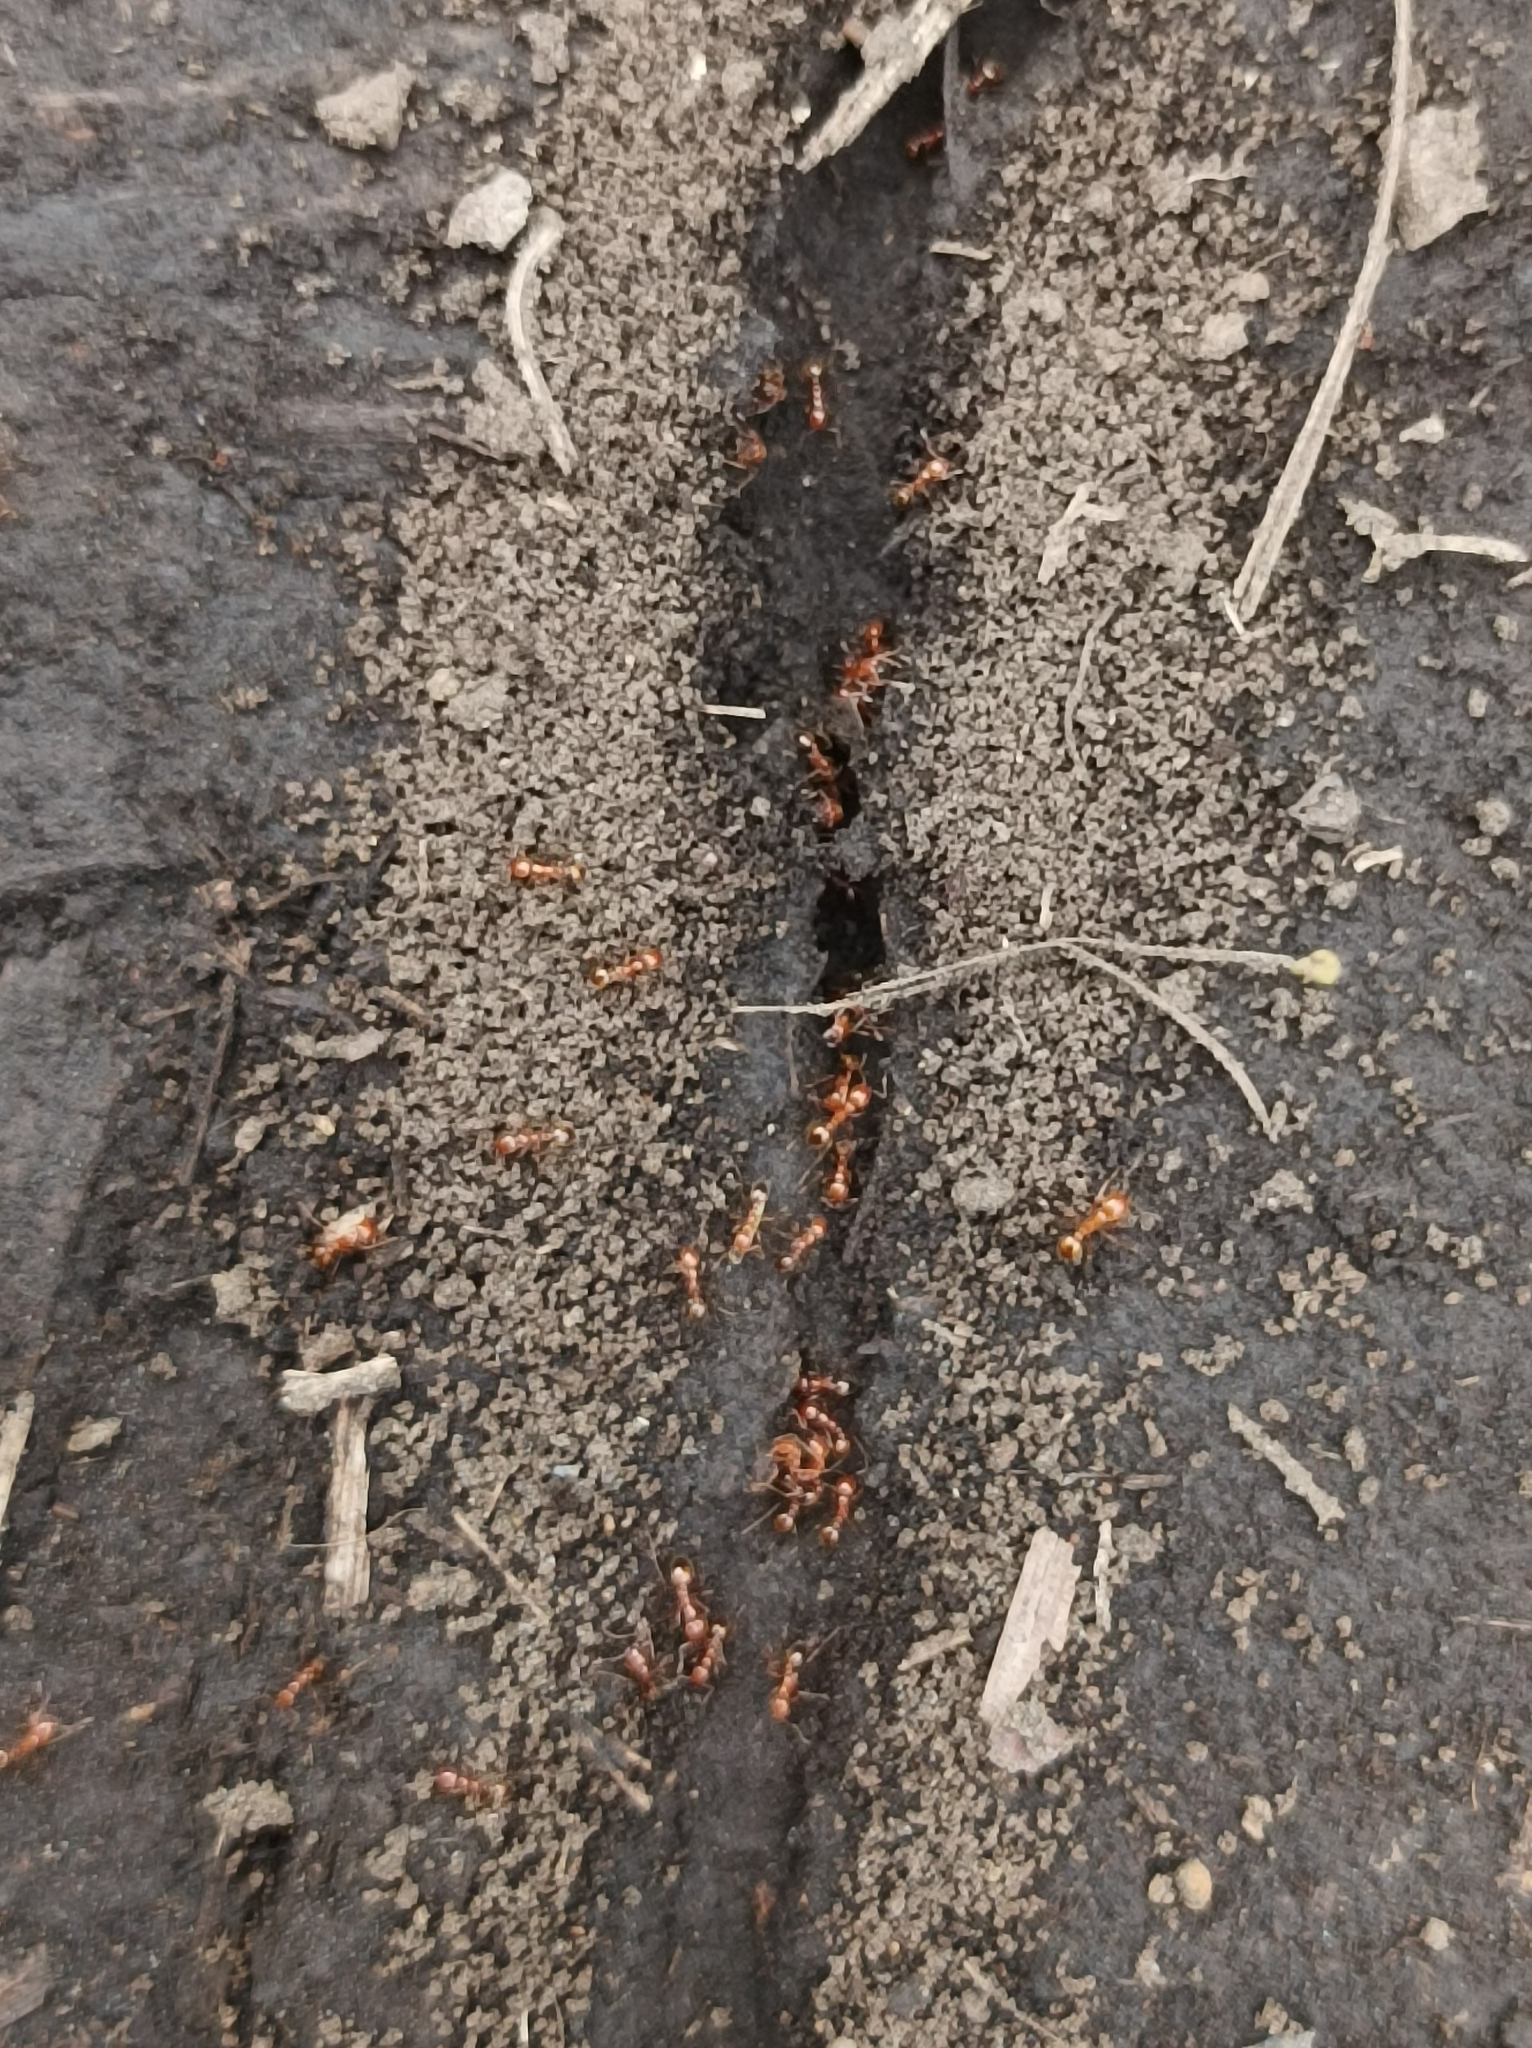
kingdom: Animalia
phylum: Arthropoda
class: Insecta
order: Hymenoptera
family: Formicidae
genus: Solenopsis
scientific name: Solenopsis geminata
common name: Tropical fire ant
